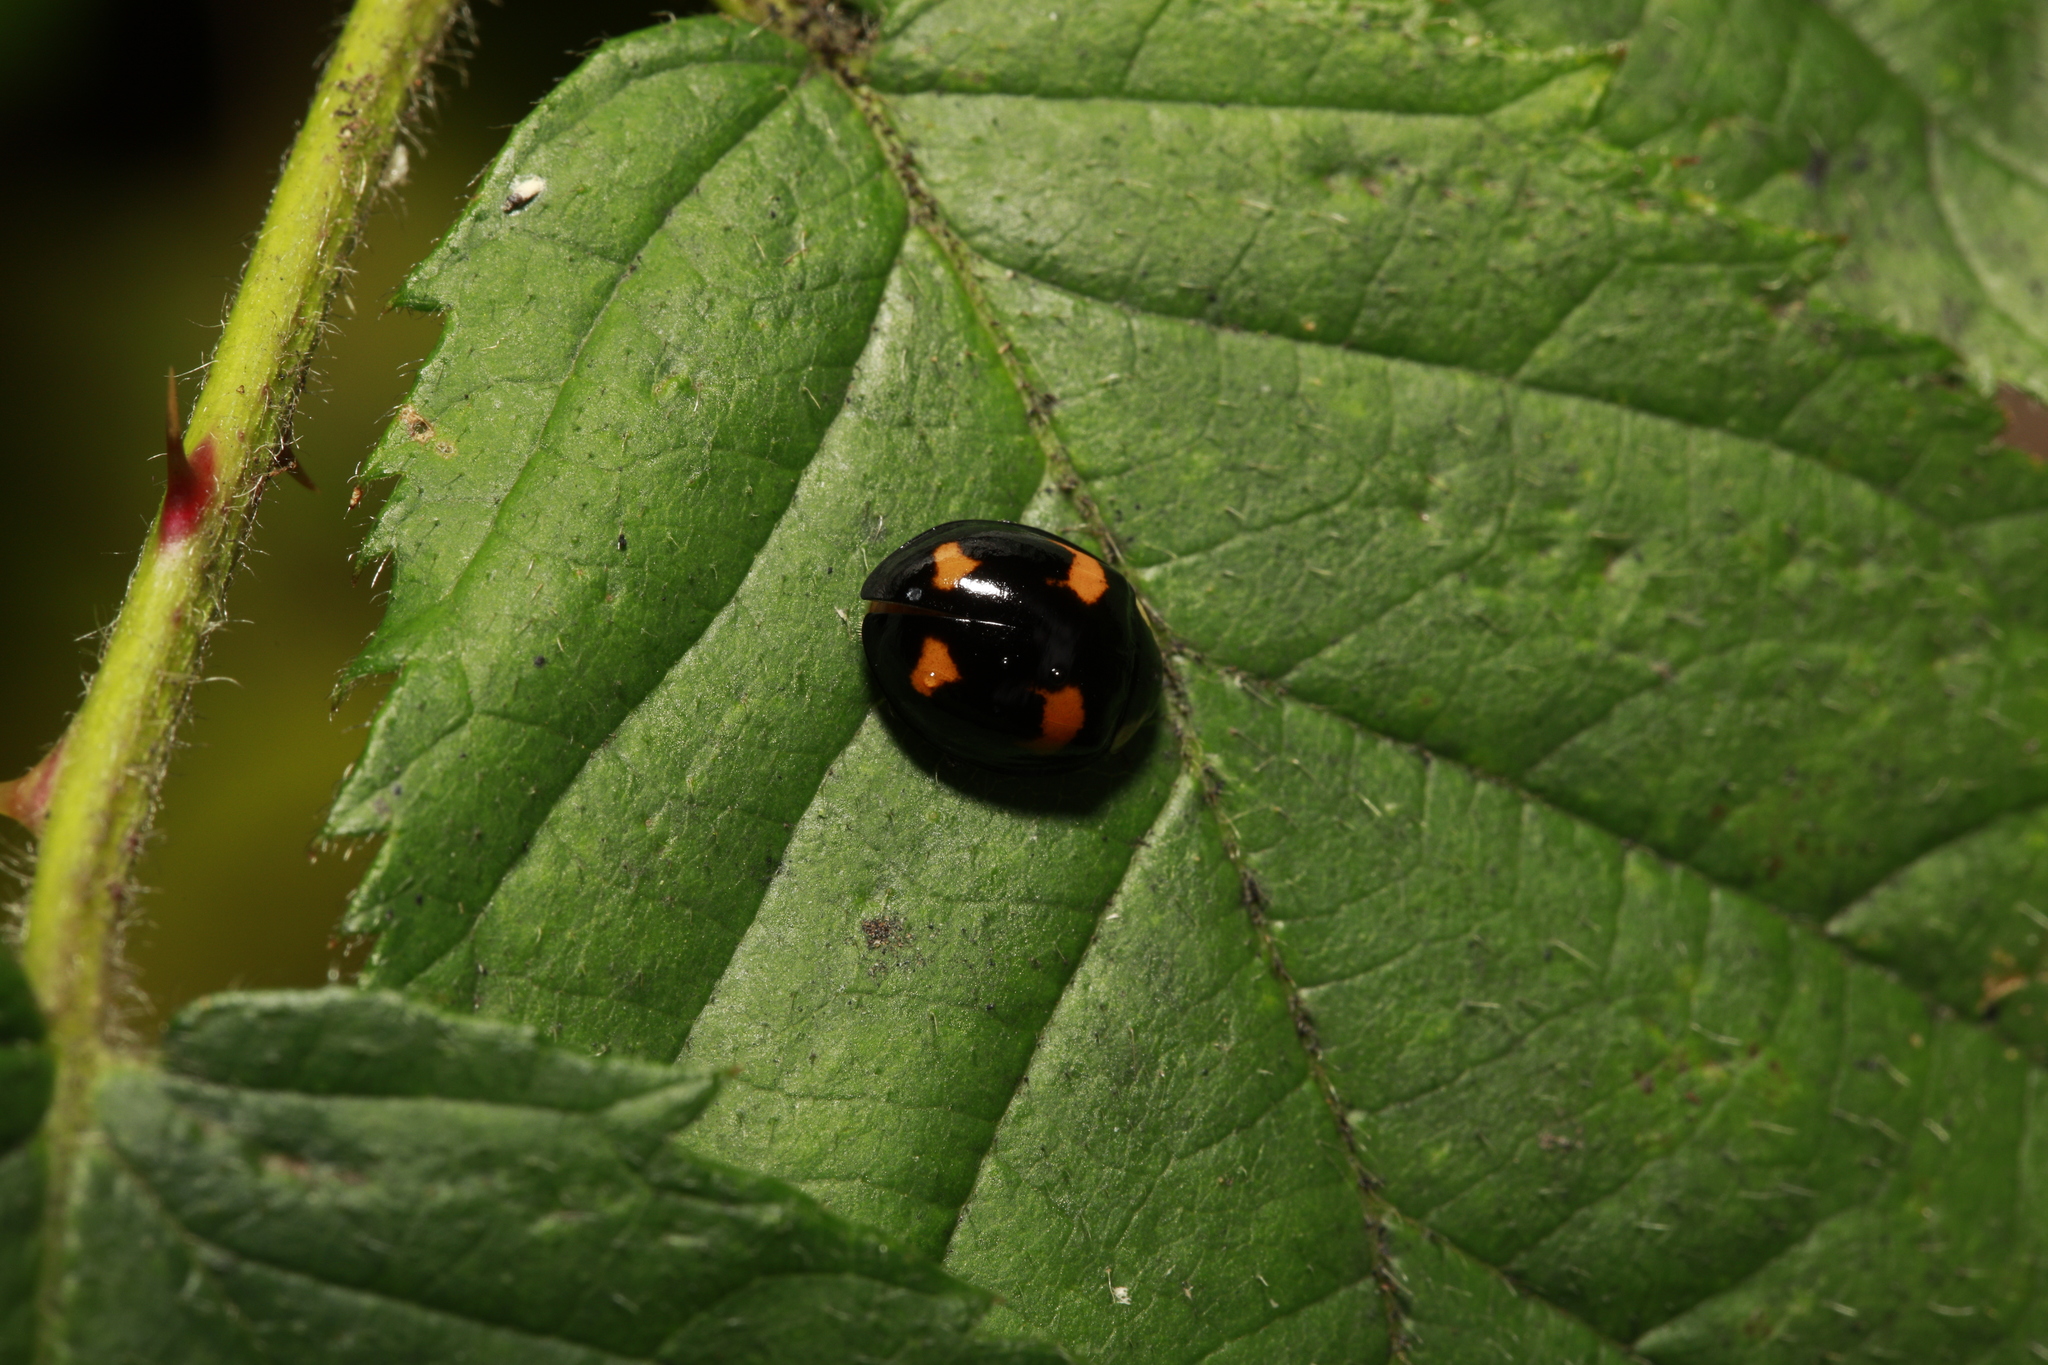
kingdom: Animalia
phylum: Arthropoda
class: Insecta
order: Coleoptera
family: Coccinellidae
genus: Harmonia
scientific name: Harmonia axyridis
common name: Harlequin ladybird
